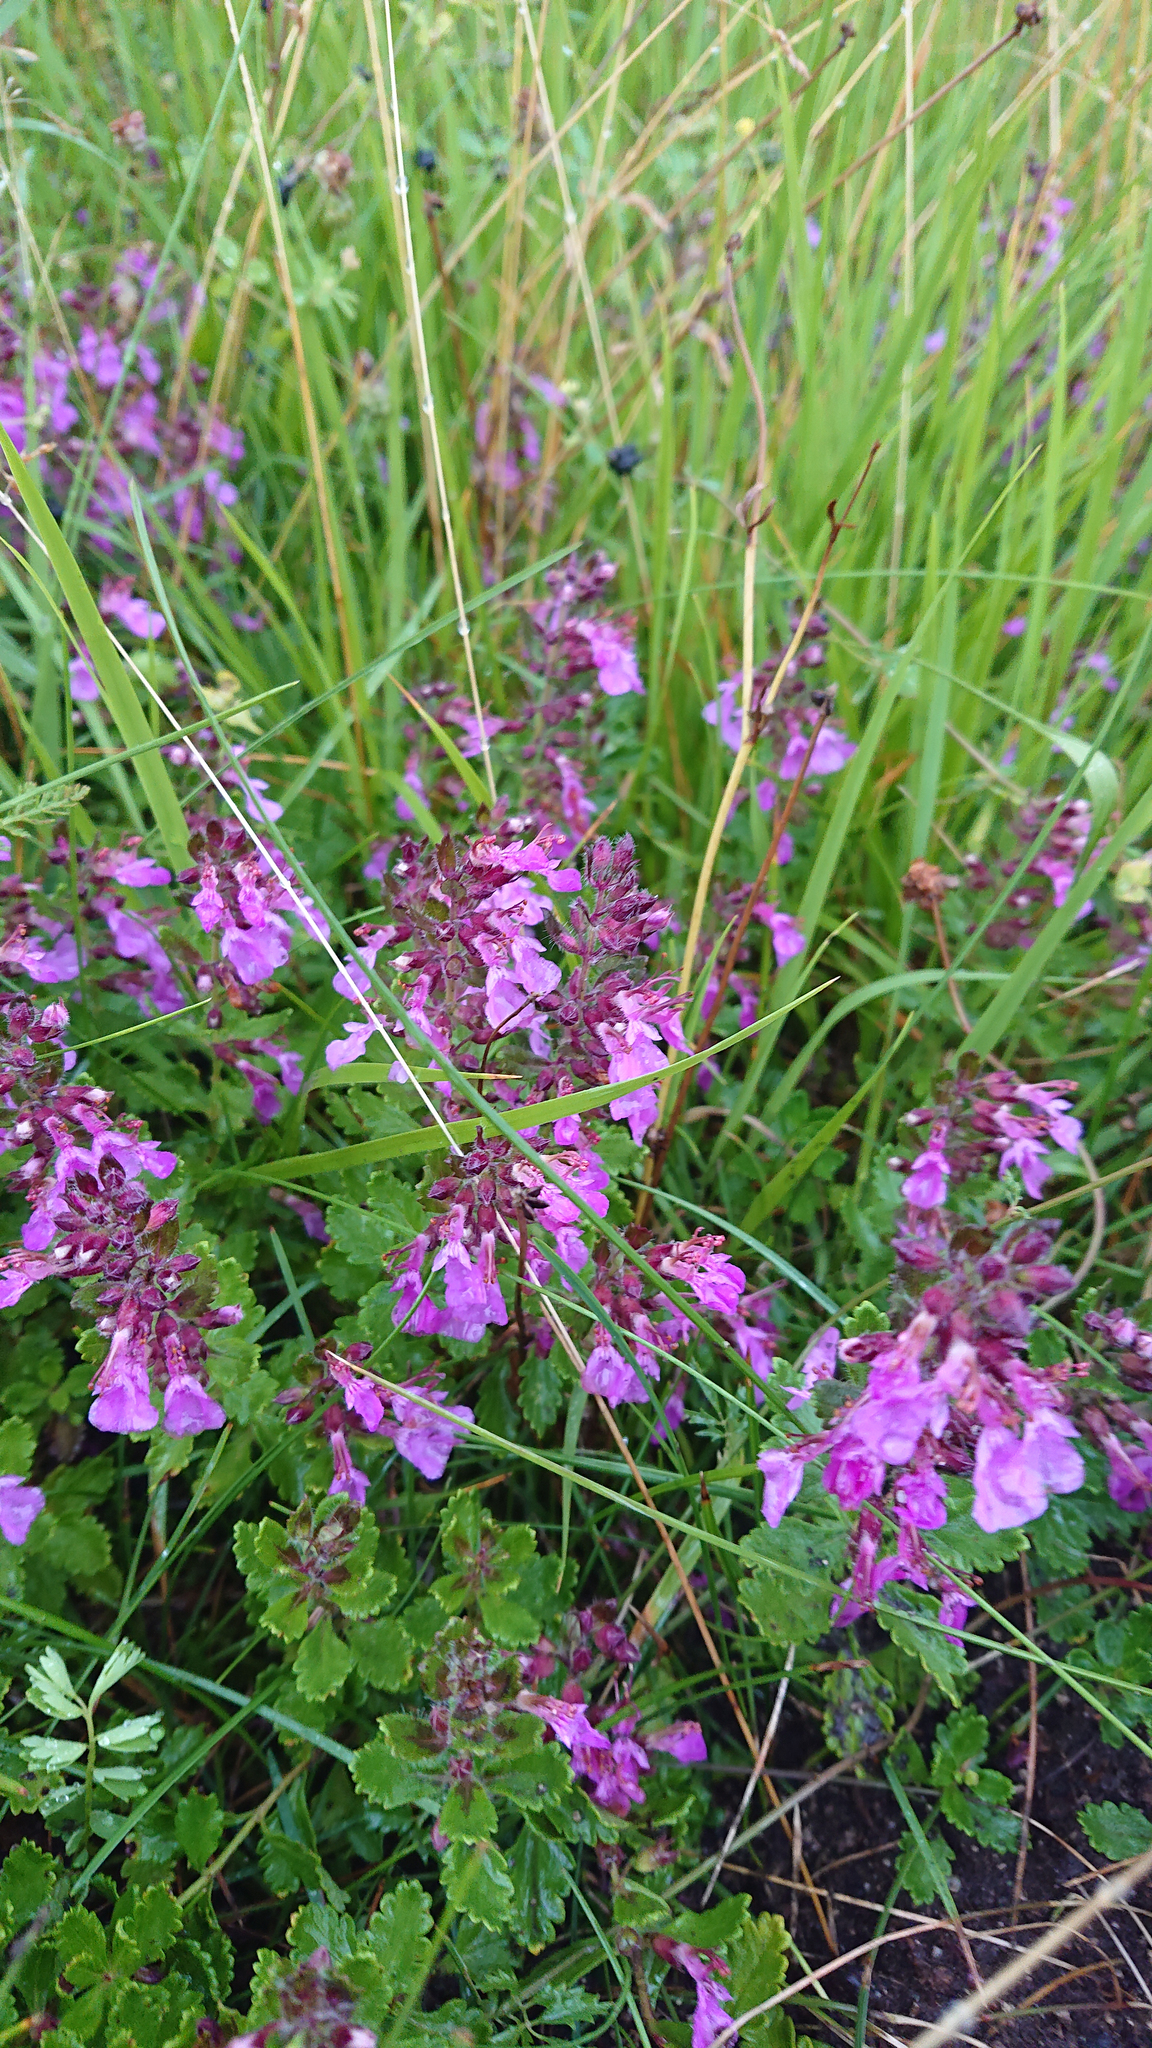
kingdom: Plantae
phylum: Tracheophyta
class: Magnoliopsida
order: Lamiales
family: Lamiaceae
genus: Teucrium
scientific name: Teucrium chamaedrys
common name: Wall germander
